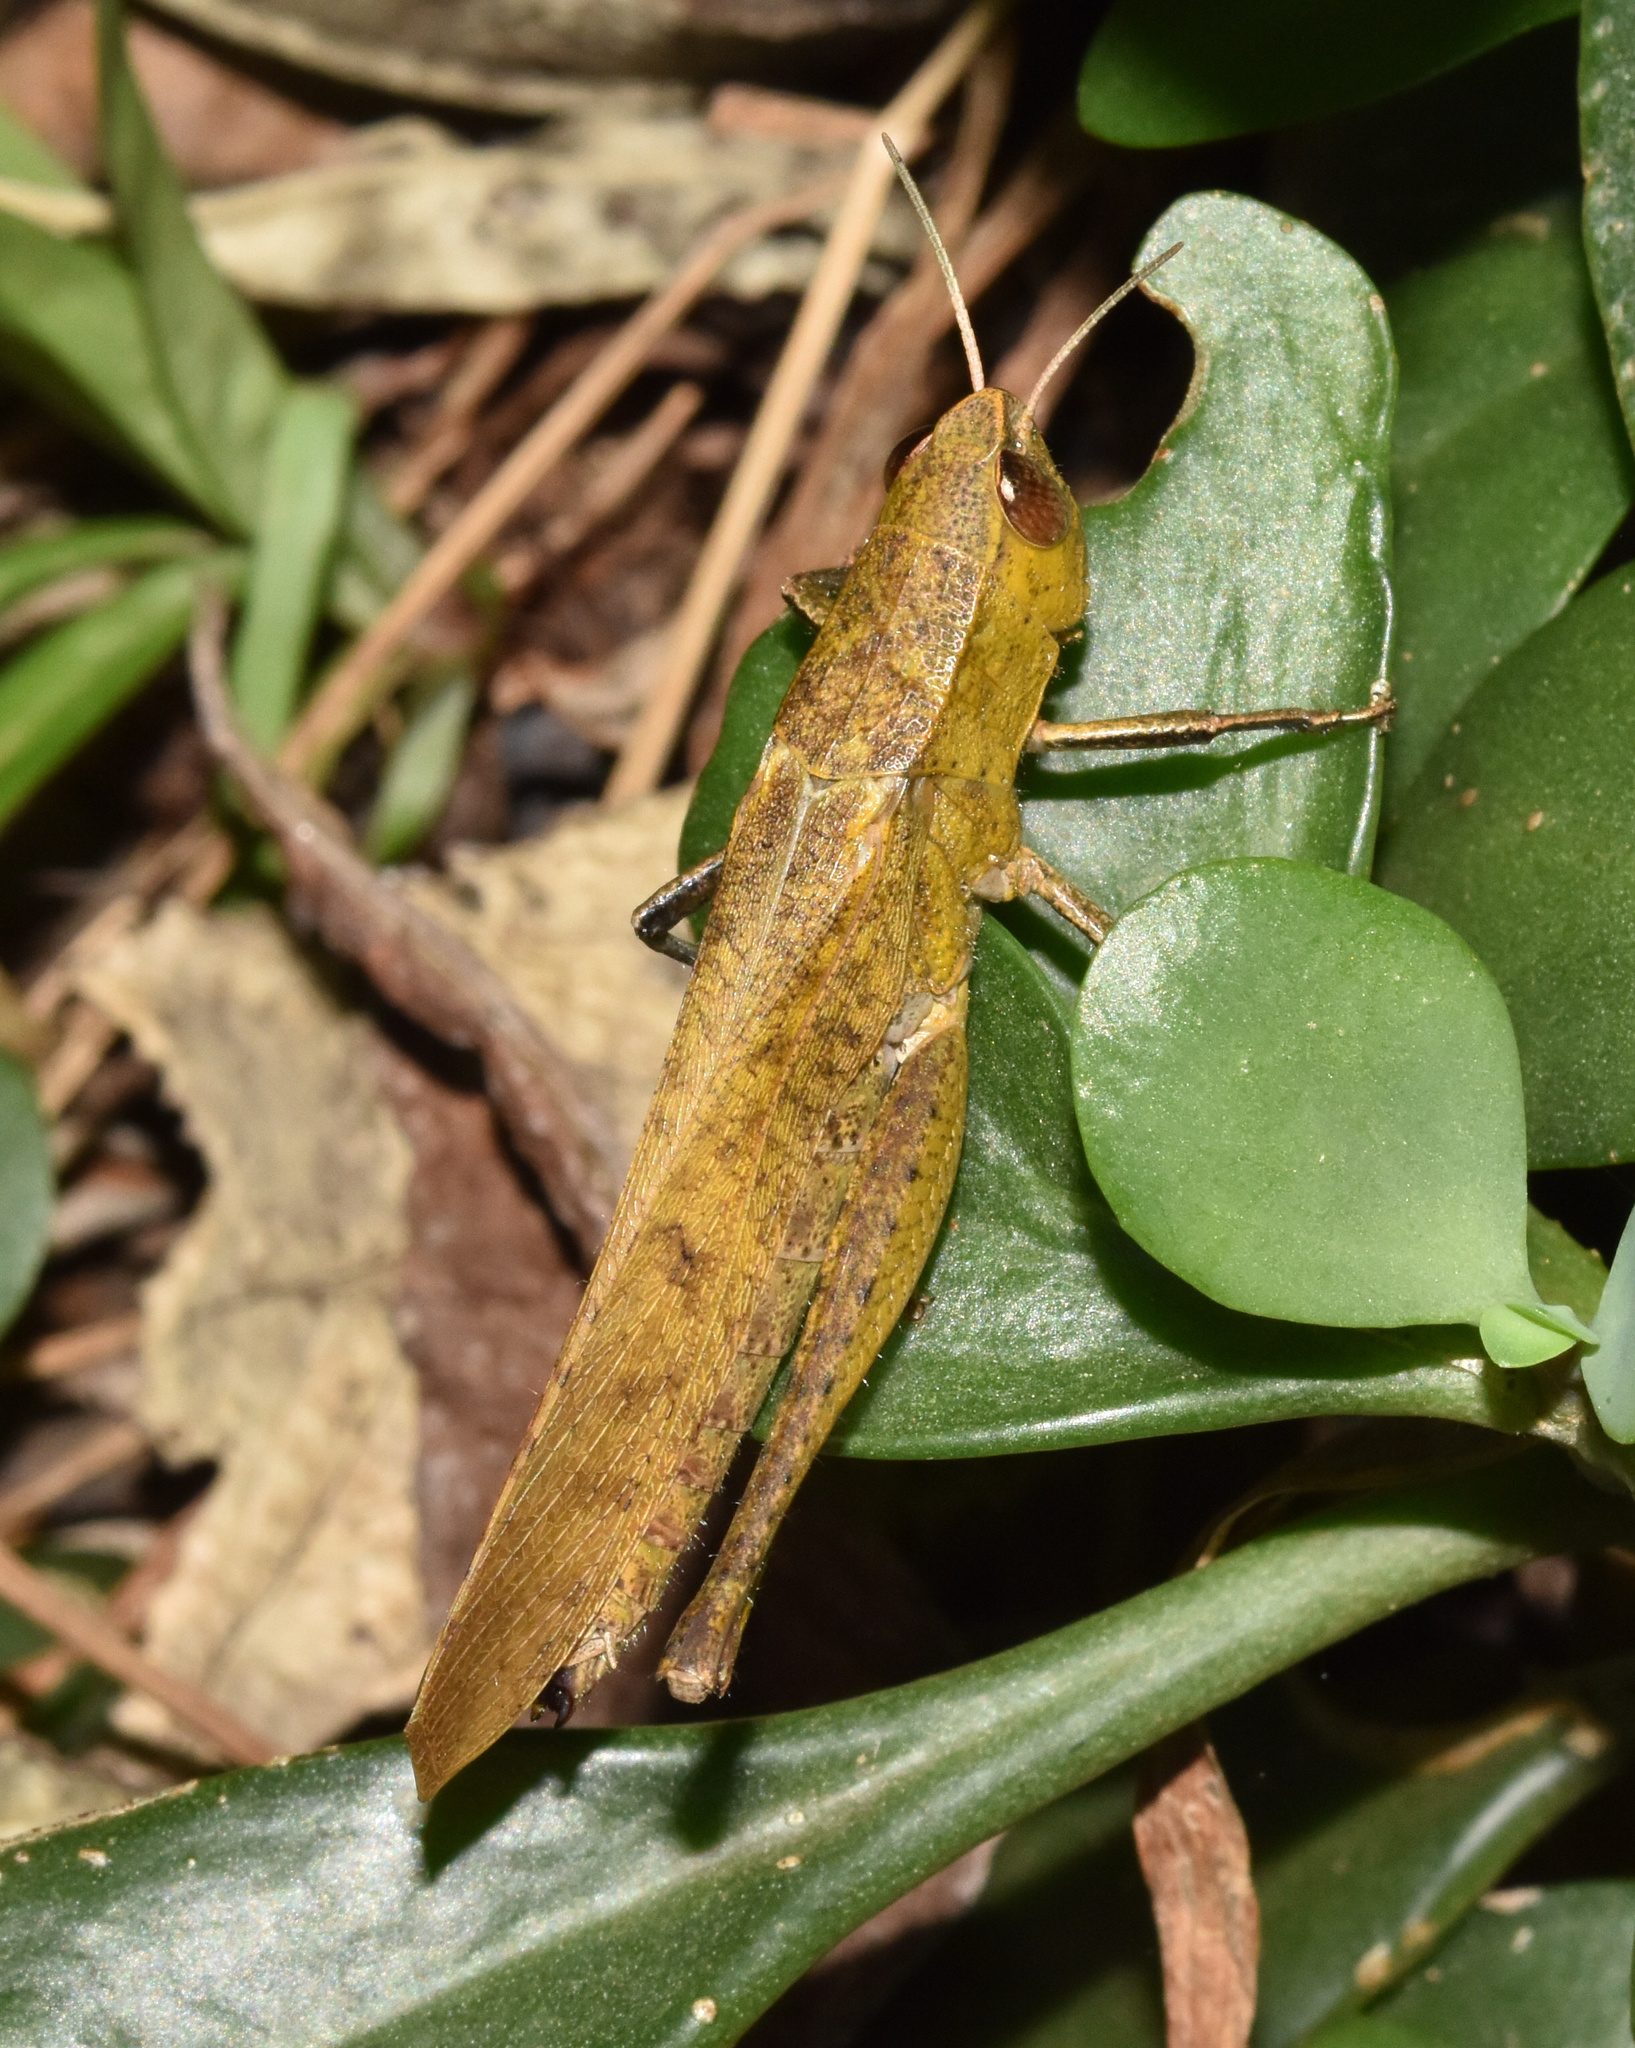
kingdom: Animalia
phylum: Arthropoda
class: Insecta
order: Orthoptera
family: Acrididae
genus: Oraistes
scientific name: Oraistes luridus
